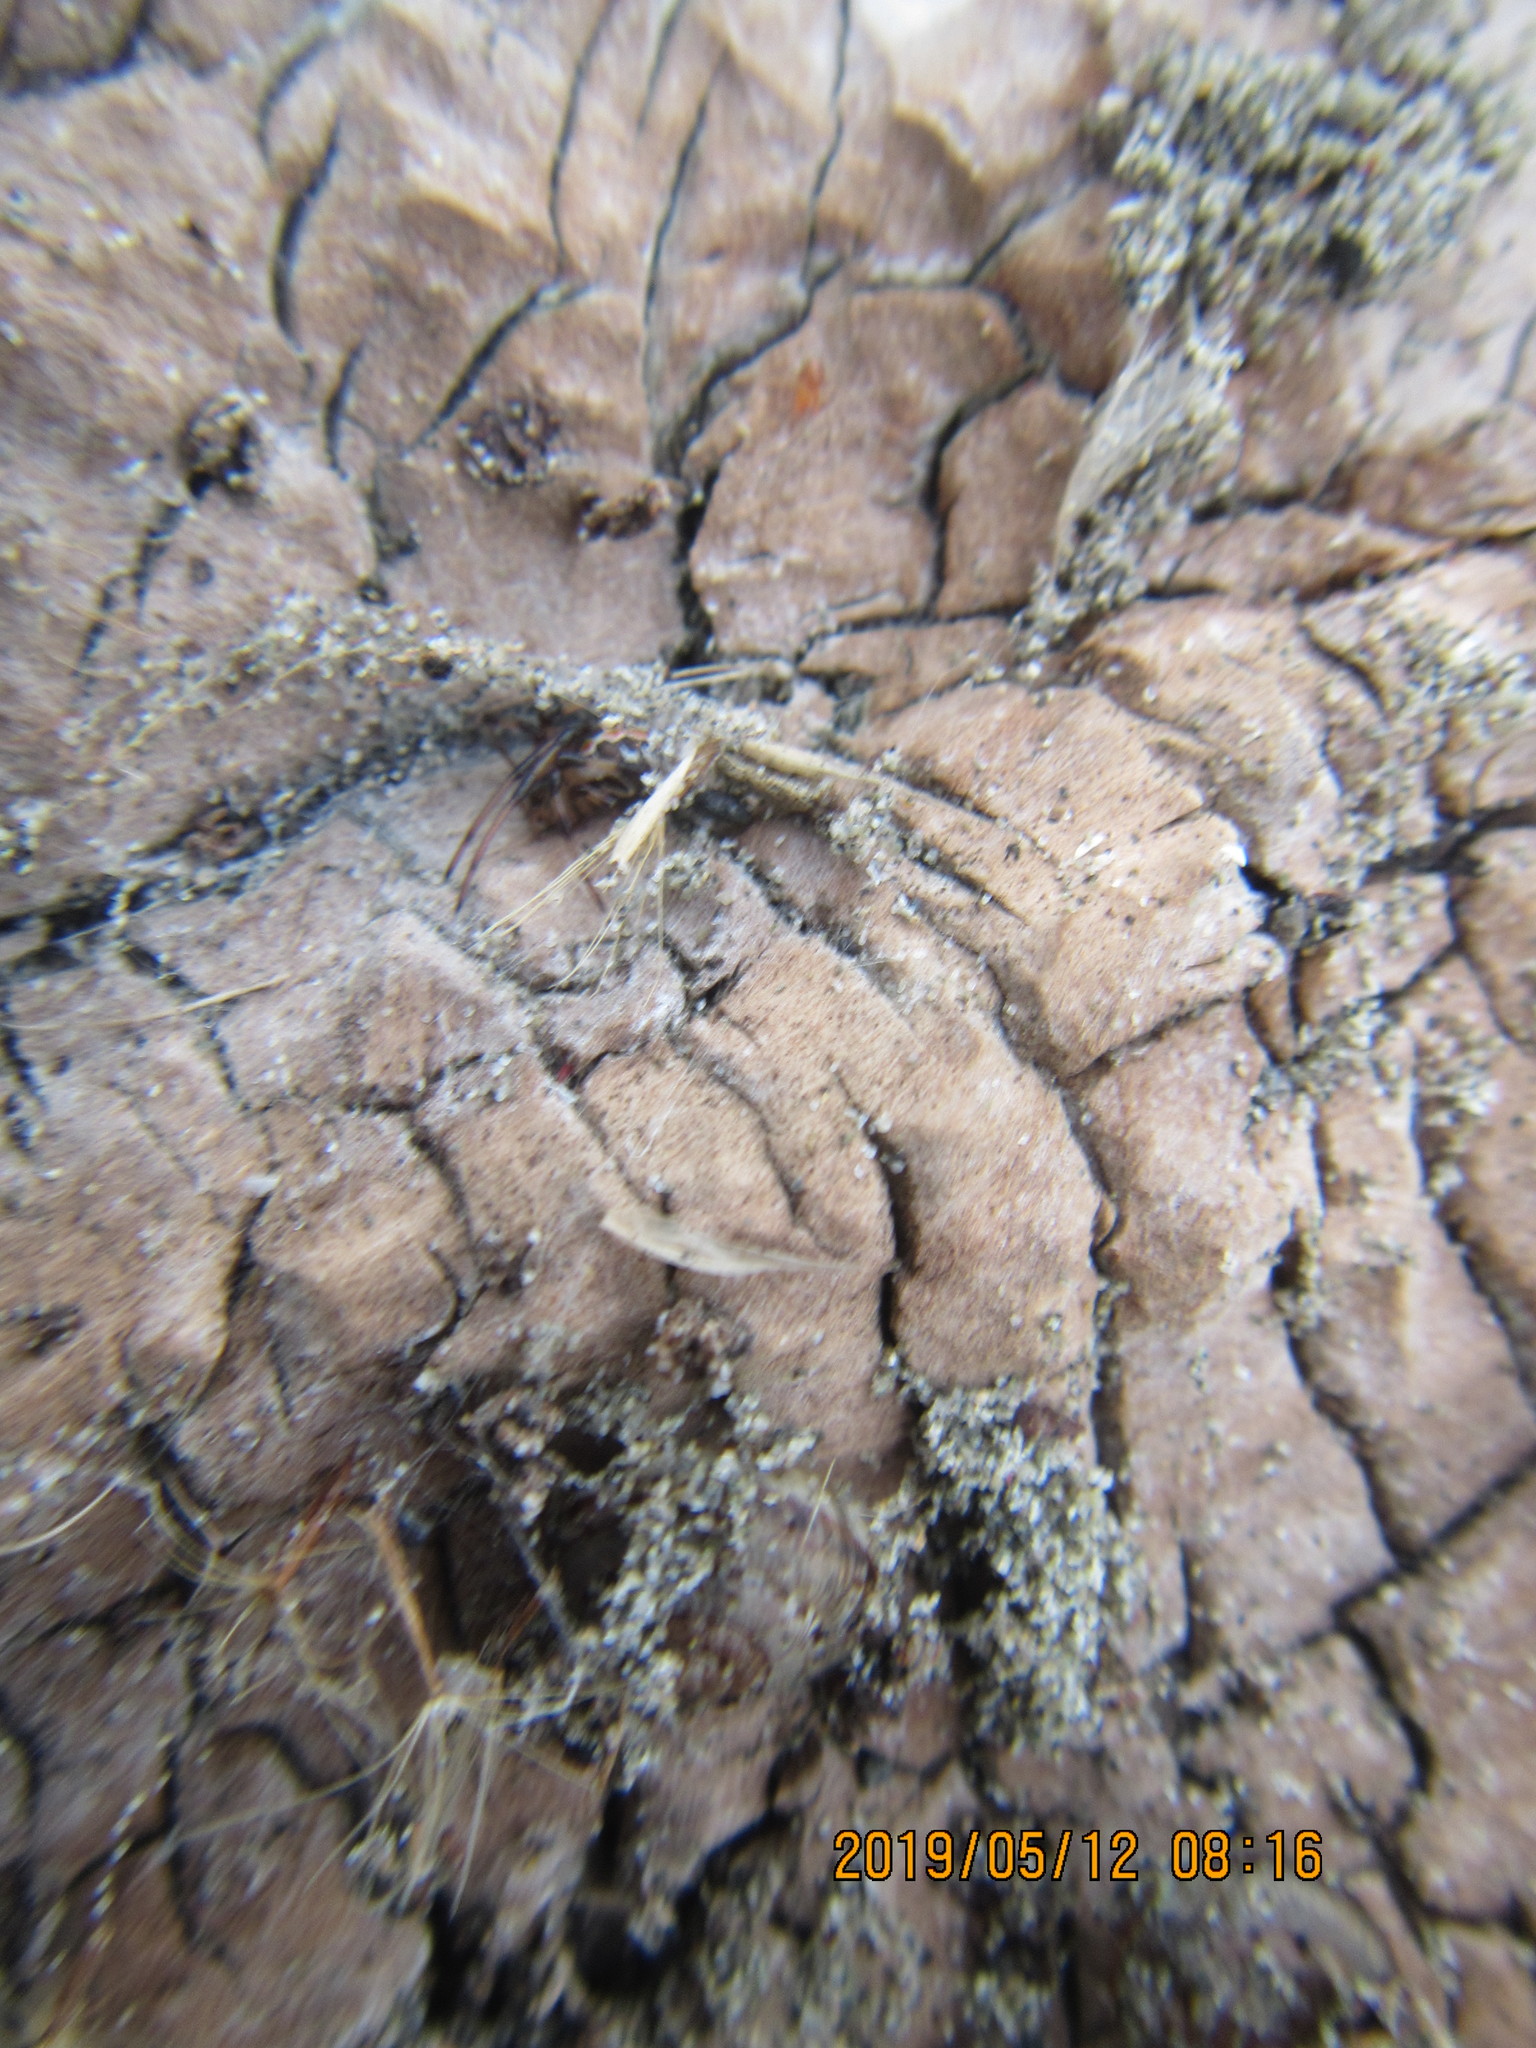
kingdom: Animalia
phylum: Arthropoda
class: Arachnida
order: Araneae
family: Theridiidae
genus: Latrodectus
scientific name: Latrodectus katipo
